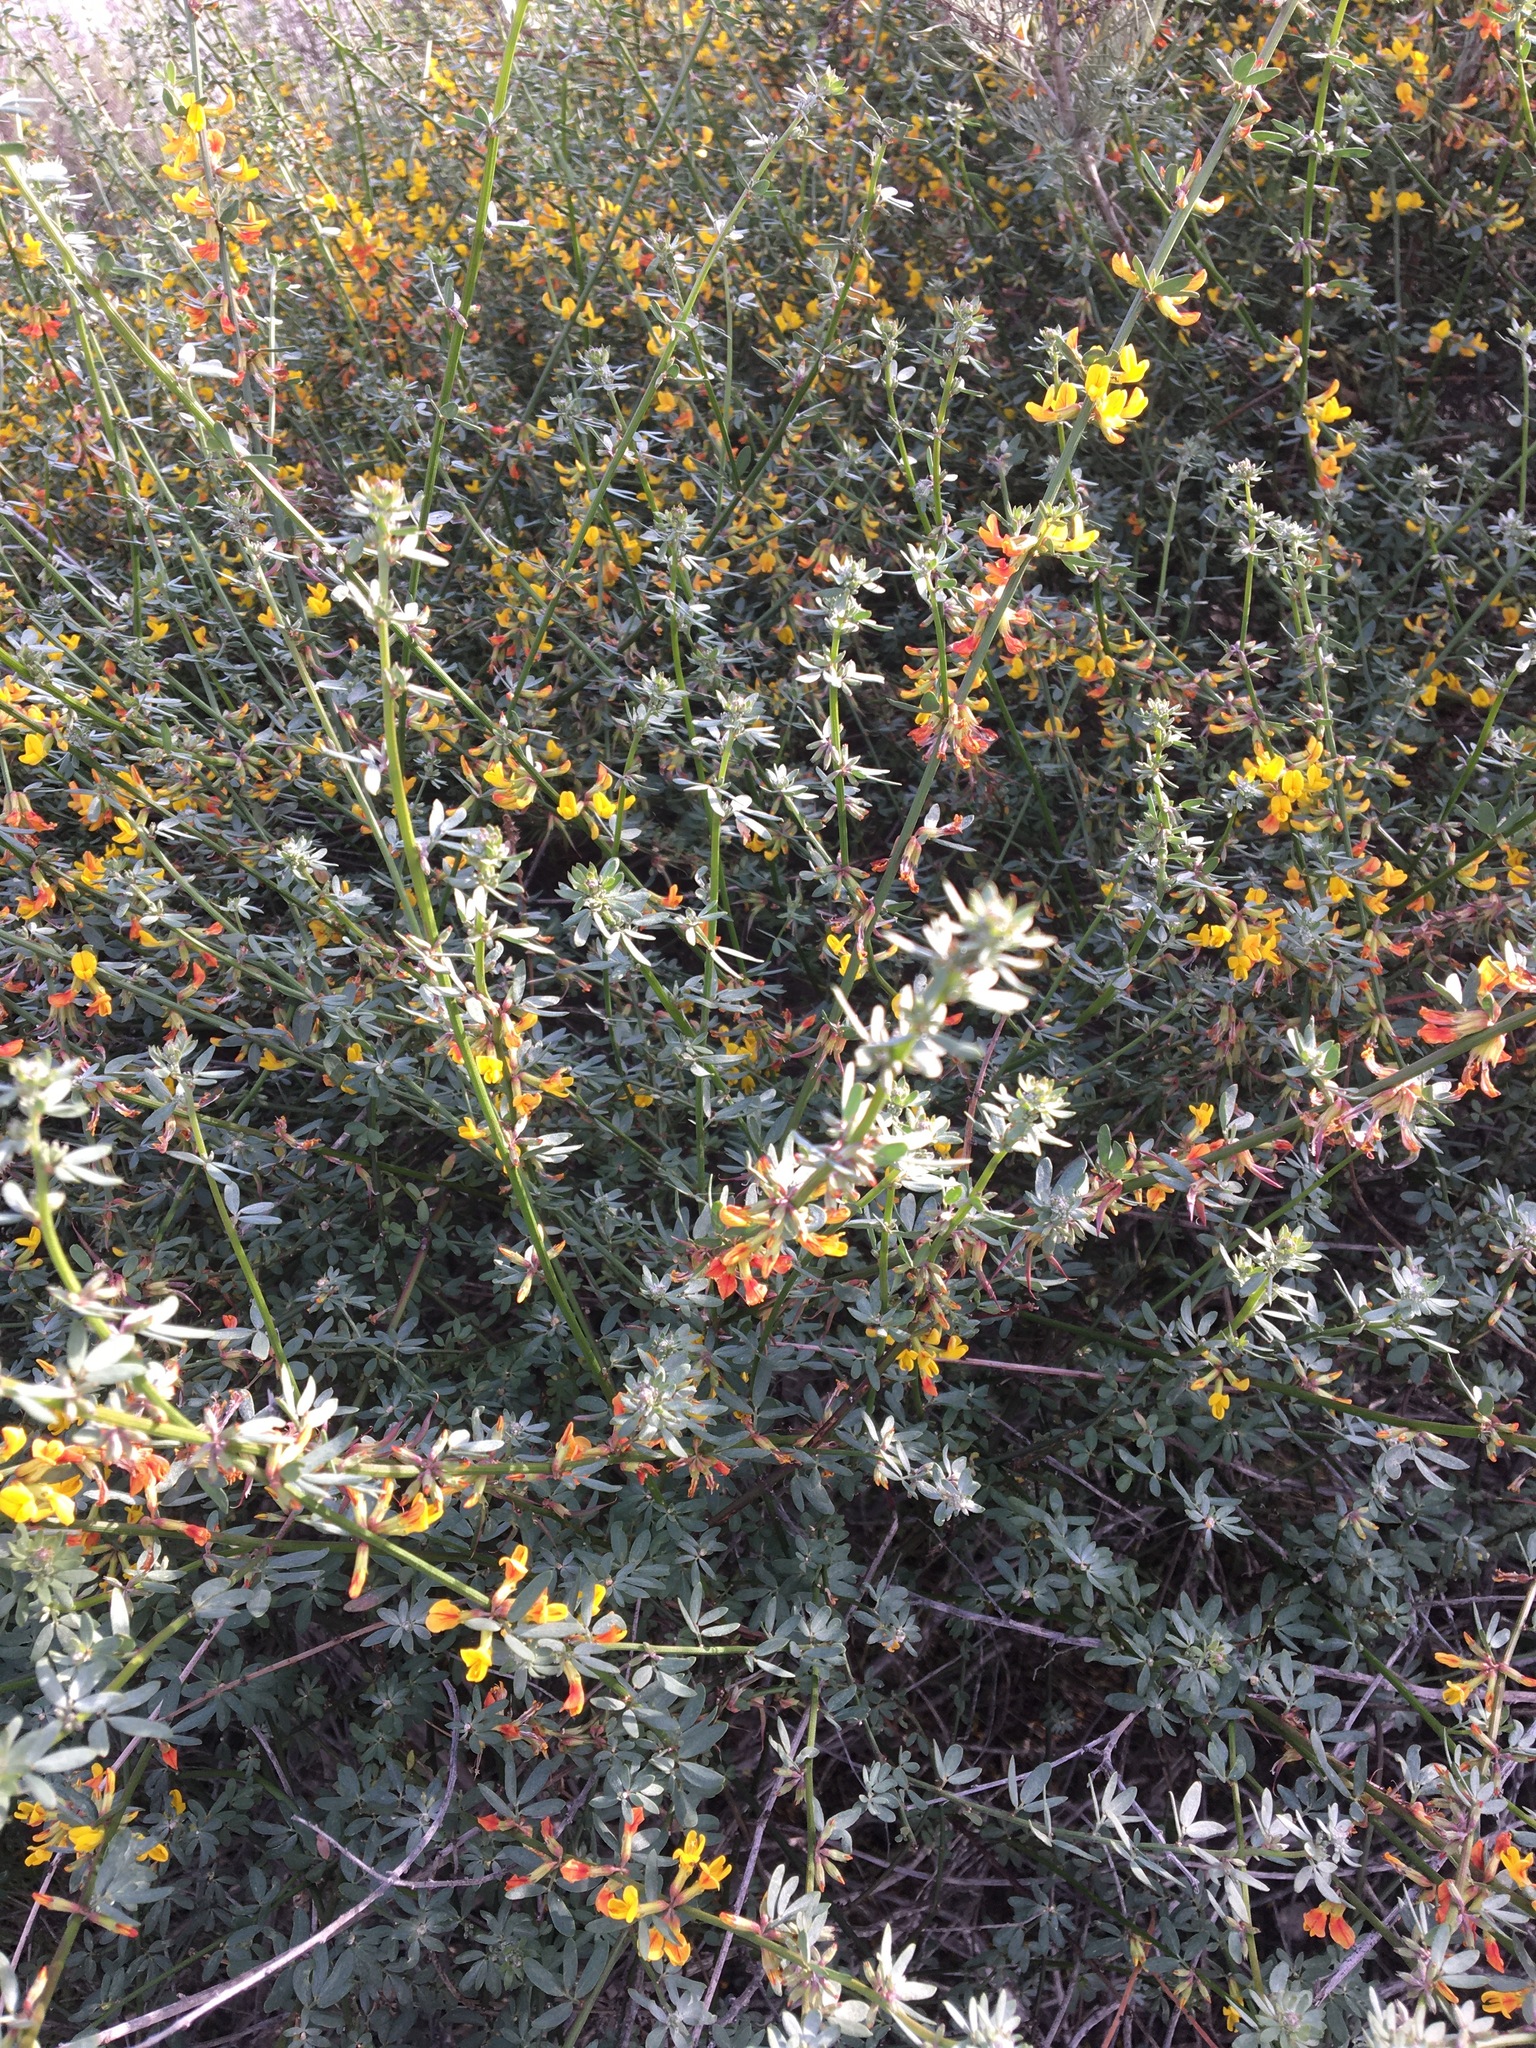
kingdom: Plantae
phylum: Tracheophyta
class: Magnoliopsida
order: Fabales
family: Fabaceae
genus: Acmispon
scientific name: Acmispon glaber
